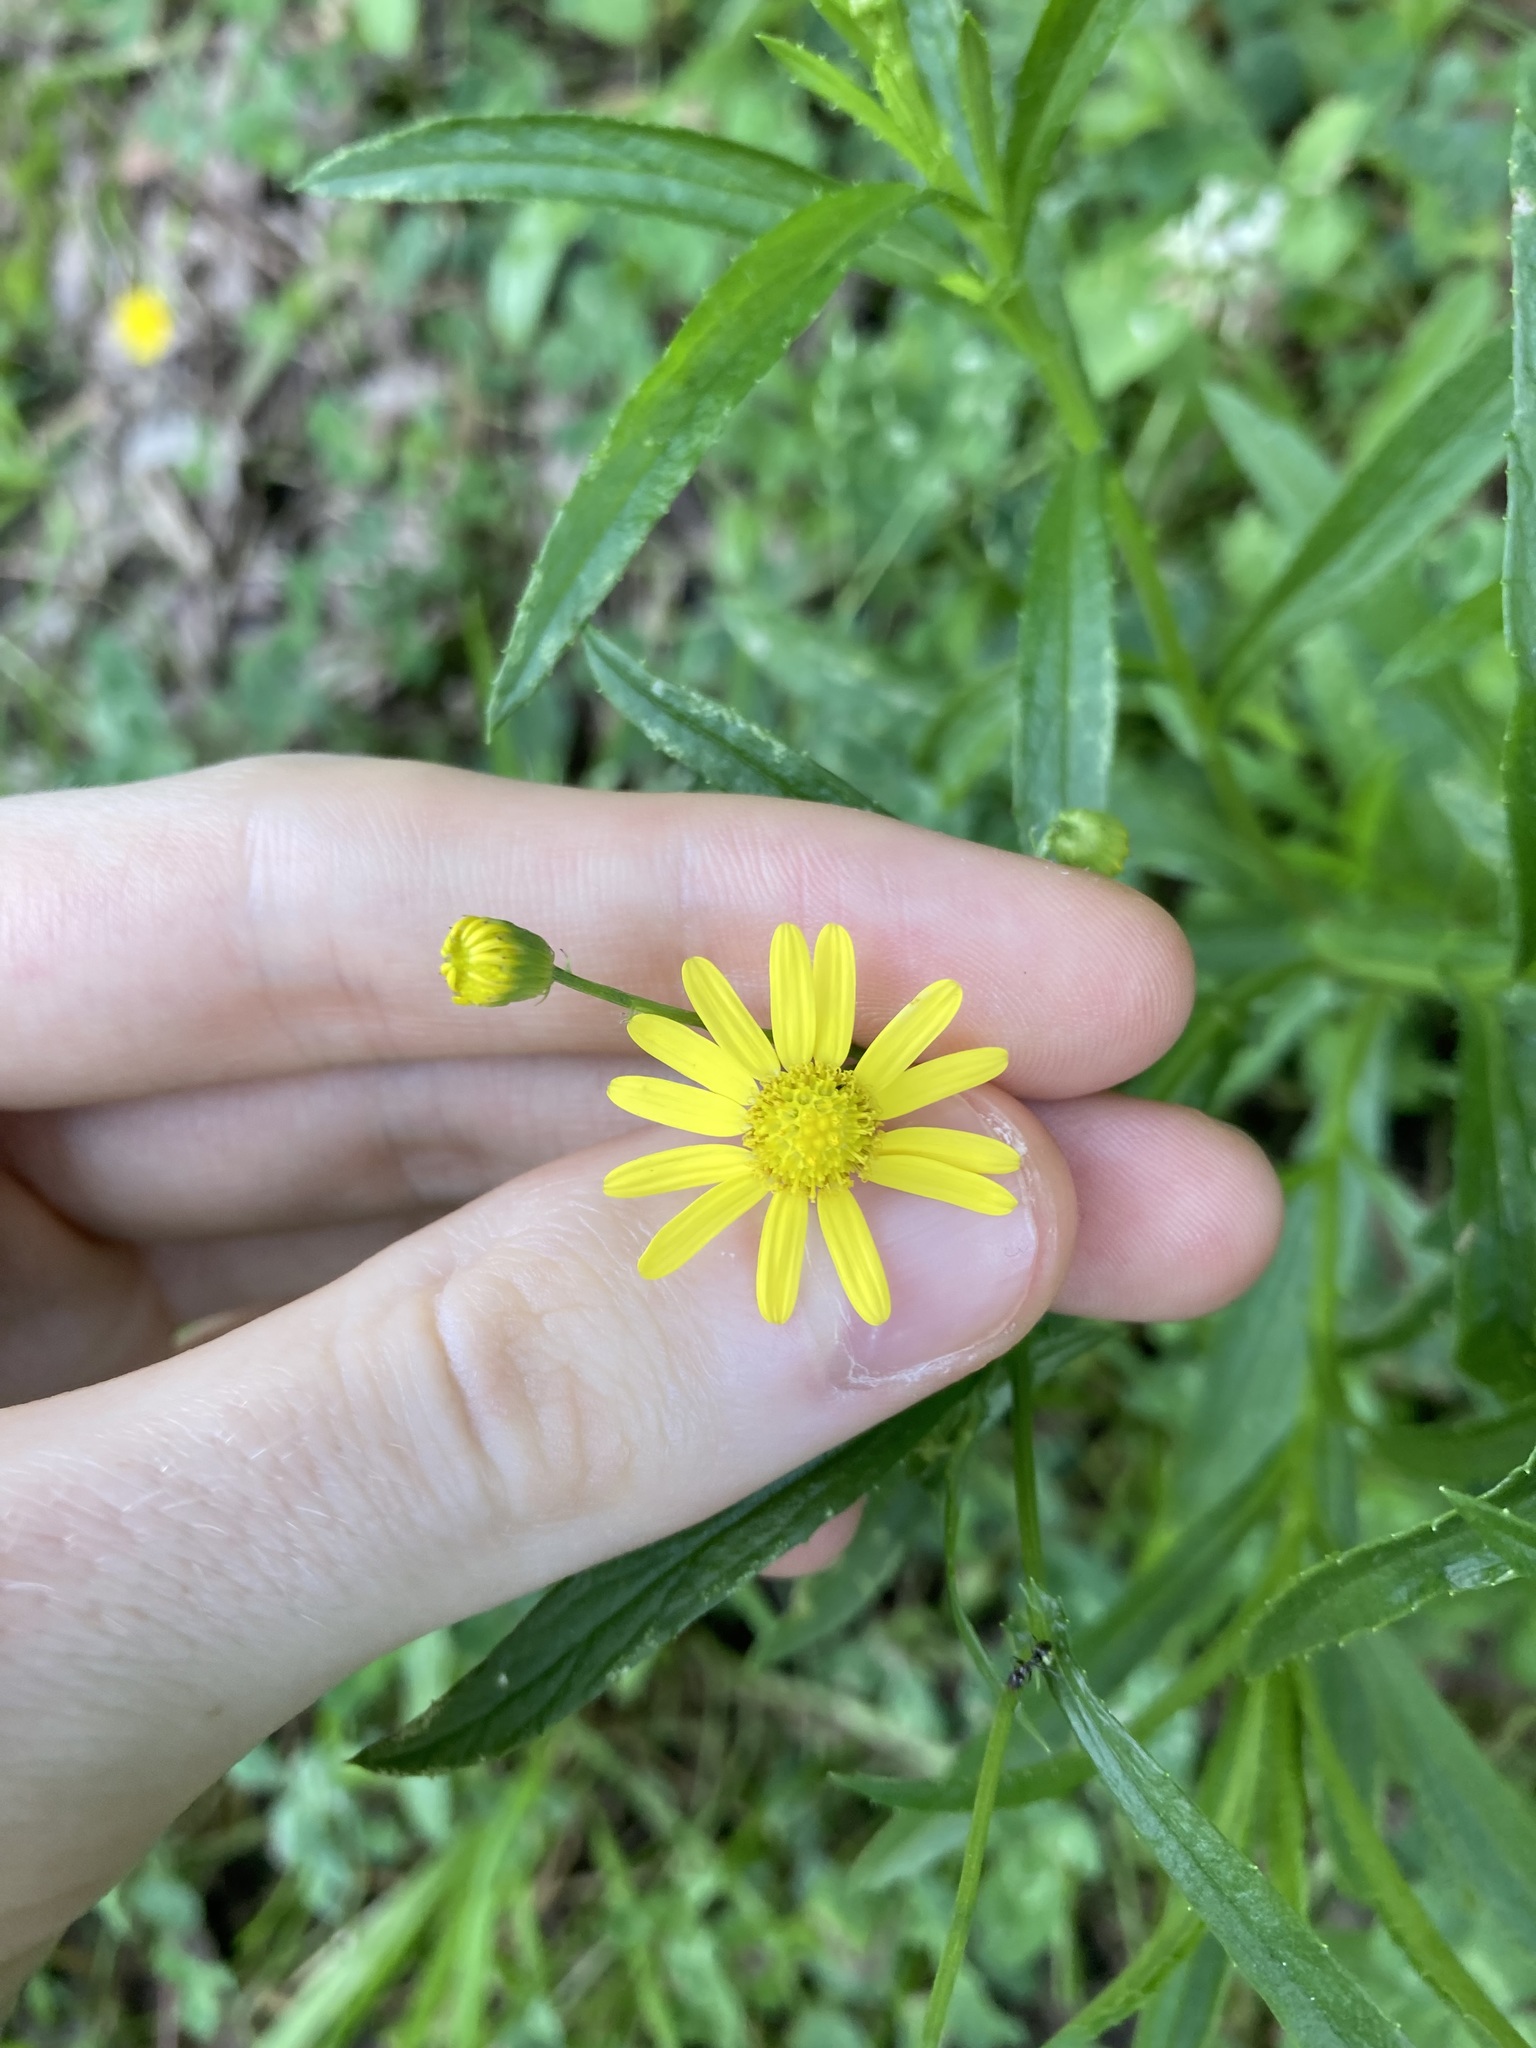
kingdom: Plantae
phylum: Tracheophyta
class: Magnoliopsida
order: Asterales
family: Asteraceae
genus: Senecio
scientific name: Senecio madagascariensis
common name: Madagascar ragwort
